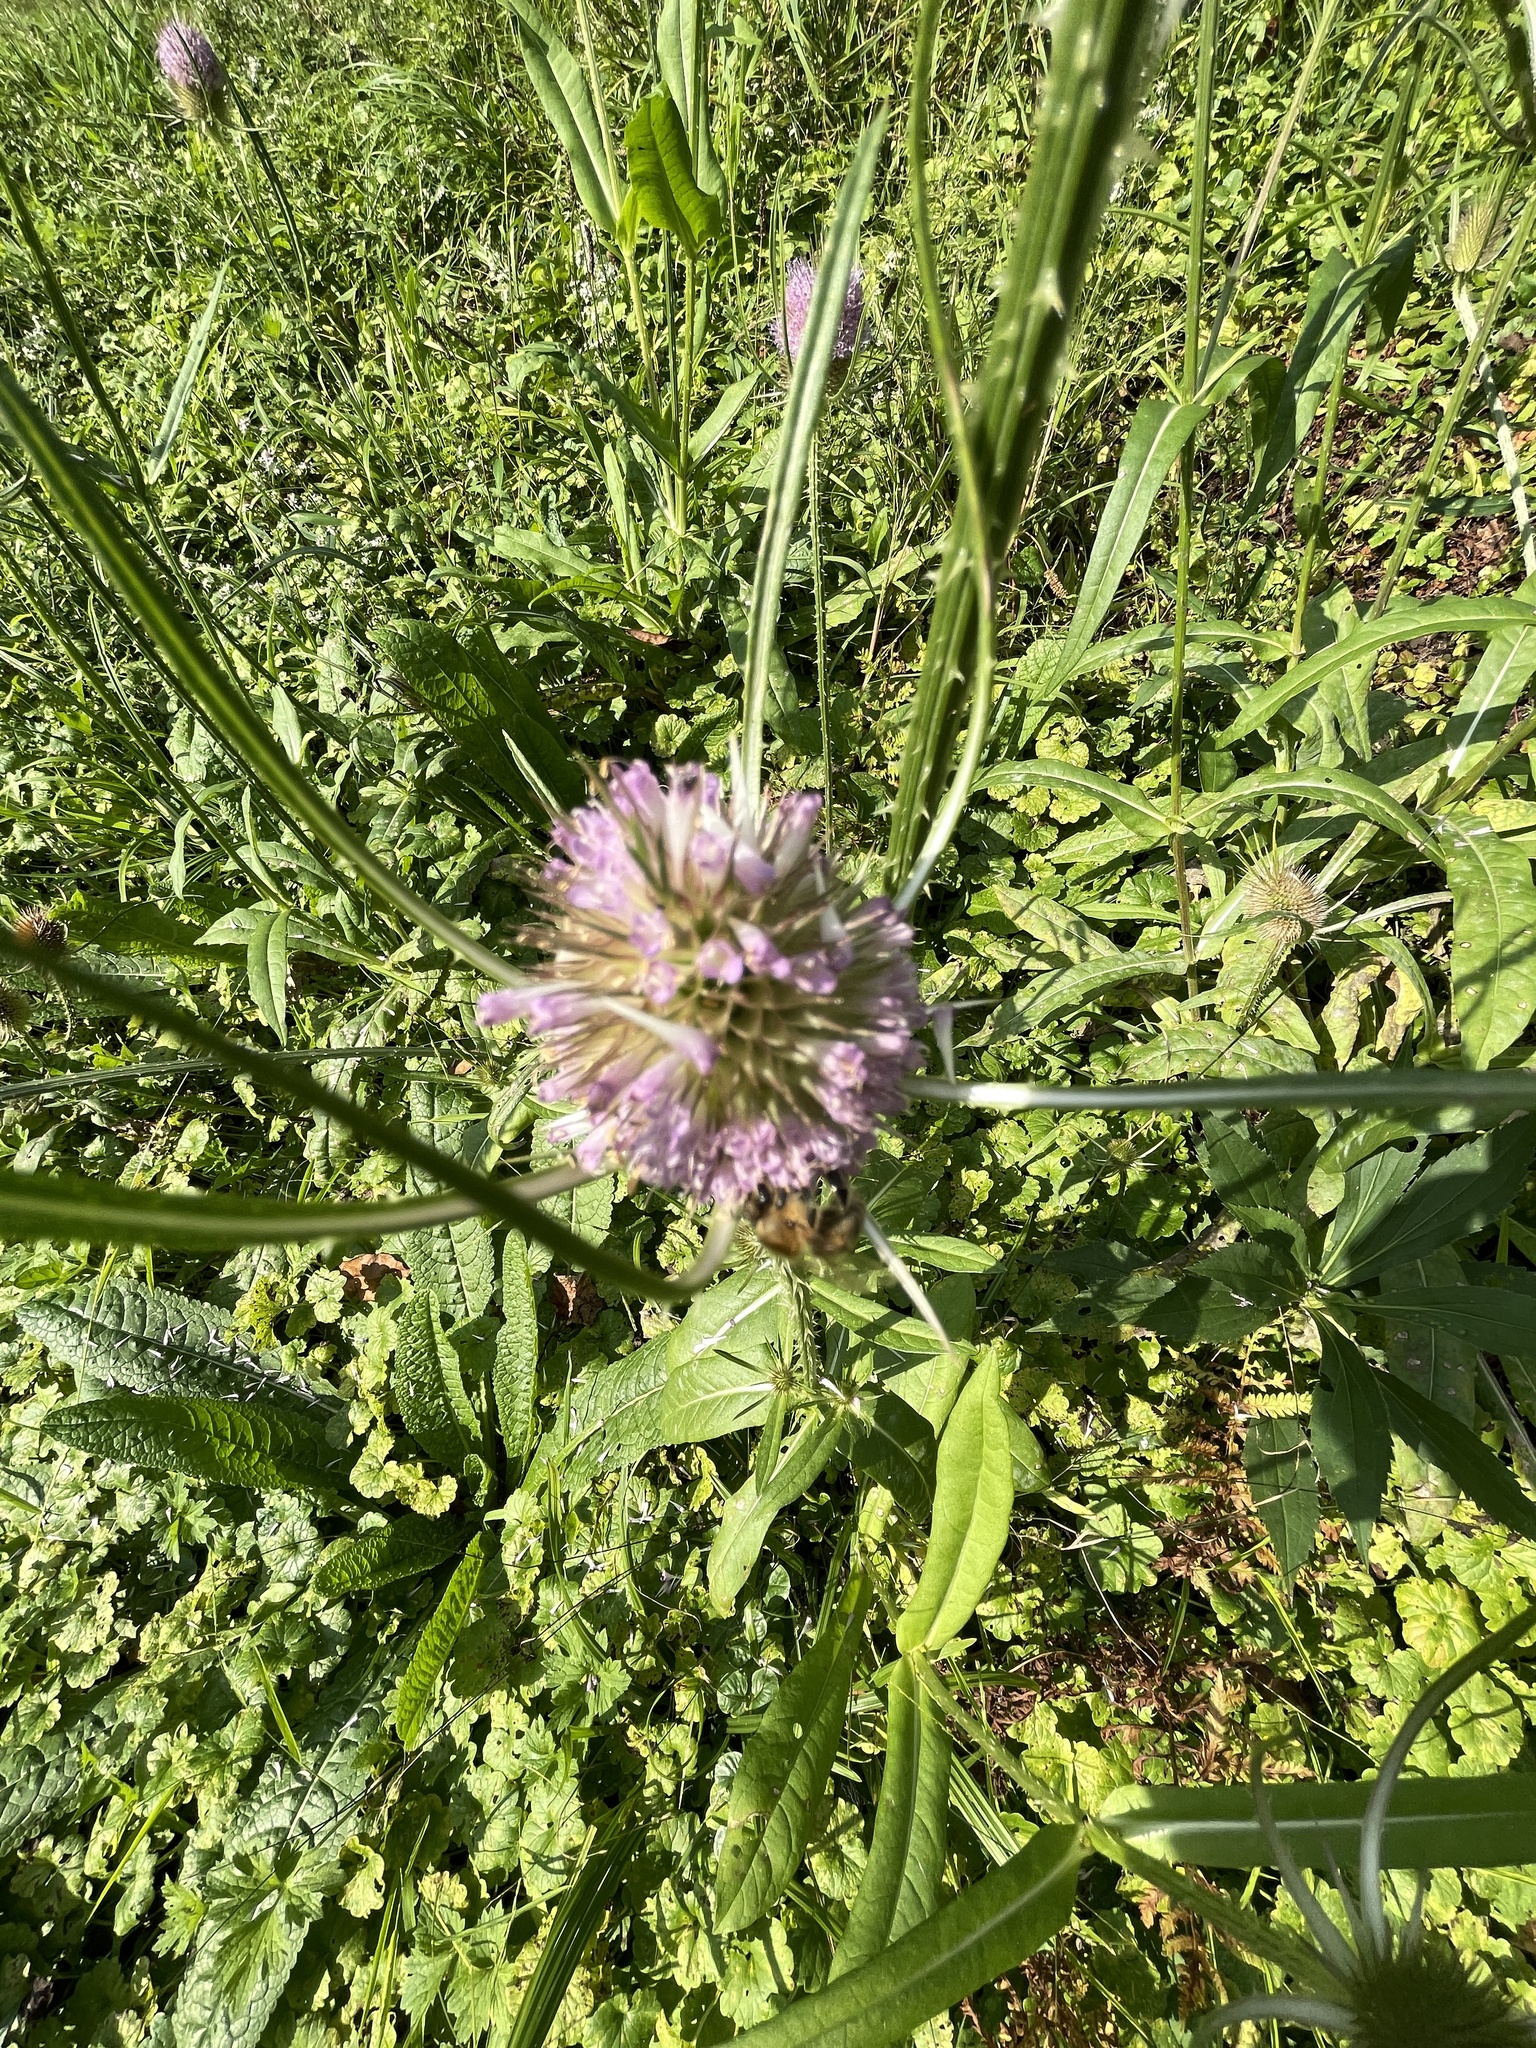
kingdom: Plantae
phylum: Tracheophyta
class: Magnoliopsida
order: Dipsacales
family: Caprifoliaceae
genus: Dipsacus
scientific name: Dipsacus fullonum
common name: Teasel
